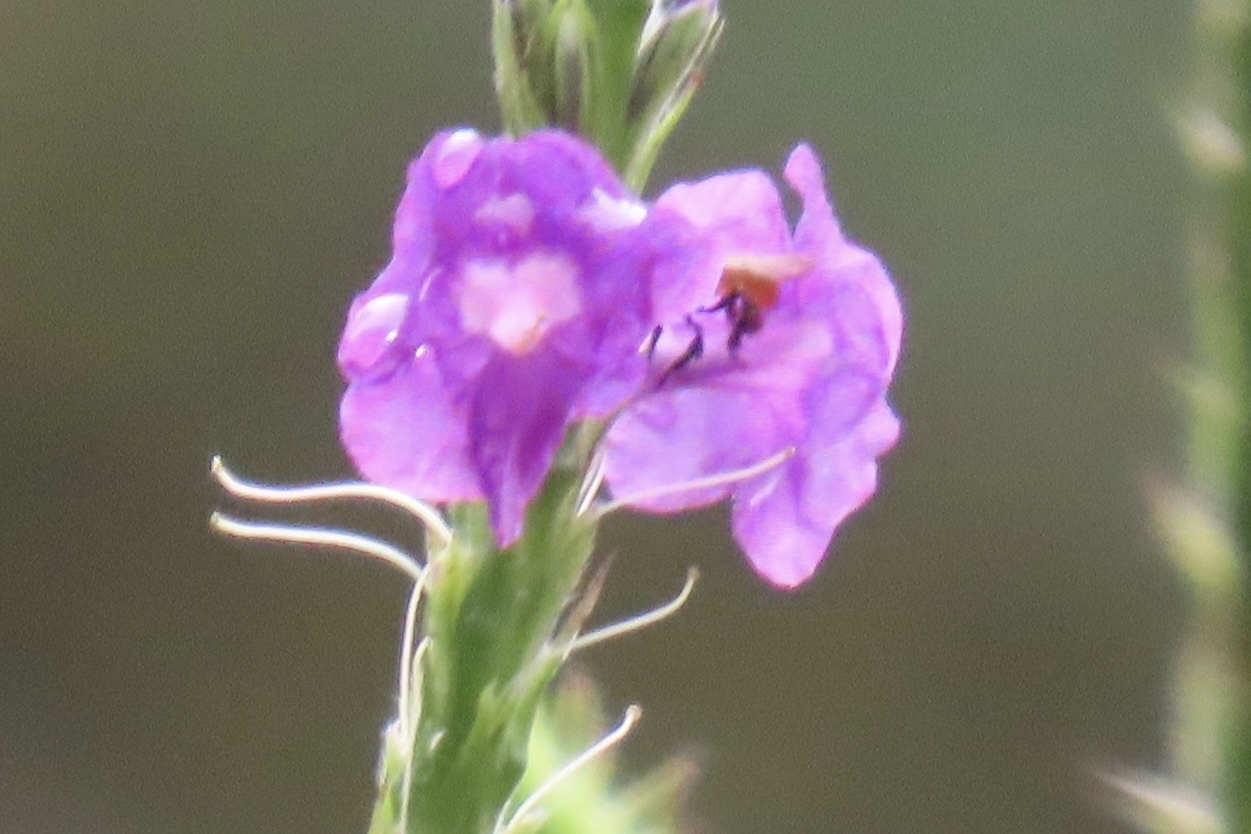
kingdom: Animalia
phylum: Arthropoda
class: Insecta
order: Hymenoptera
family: Apidae
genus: Trigona
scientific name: Trigona fulviventris
